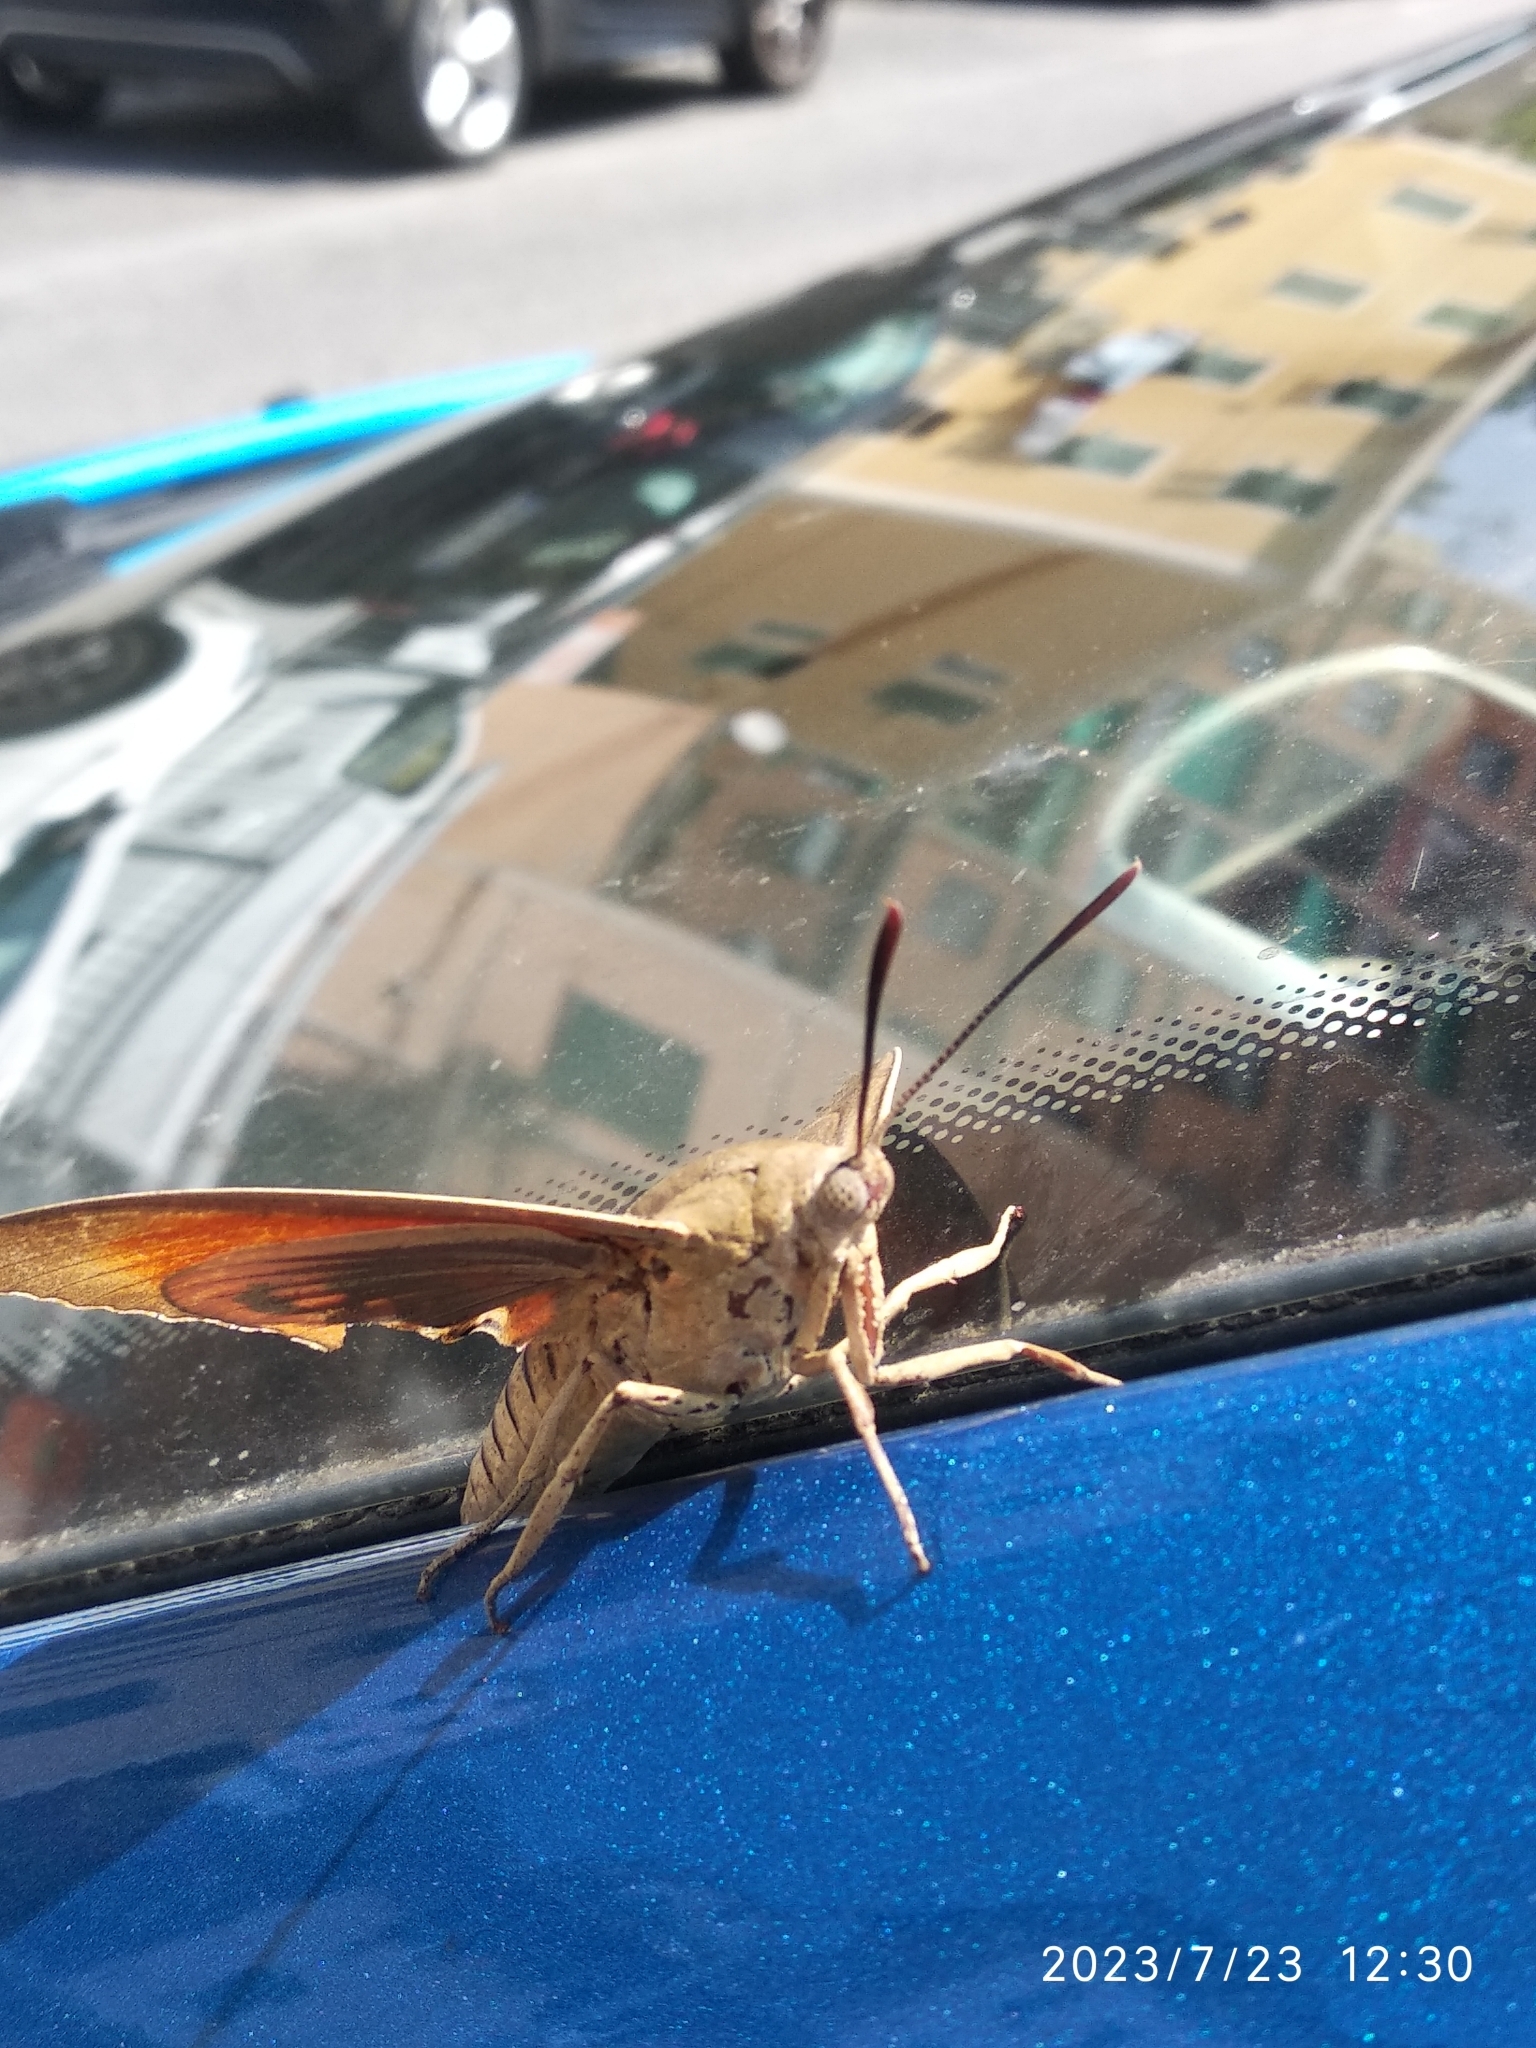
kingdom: Animalia
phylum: Arthropoda
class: Insecta
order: Lepidoptera
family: Castniidae
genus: Paysandisia
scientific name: Paysandisia archon
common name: Palm moth
